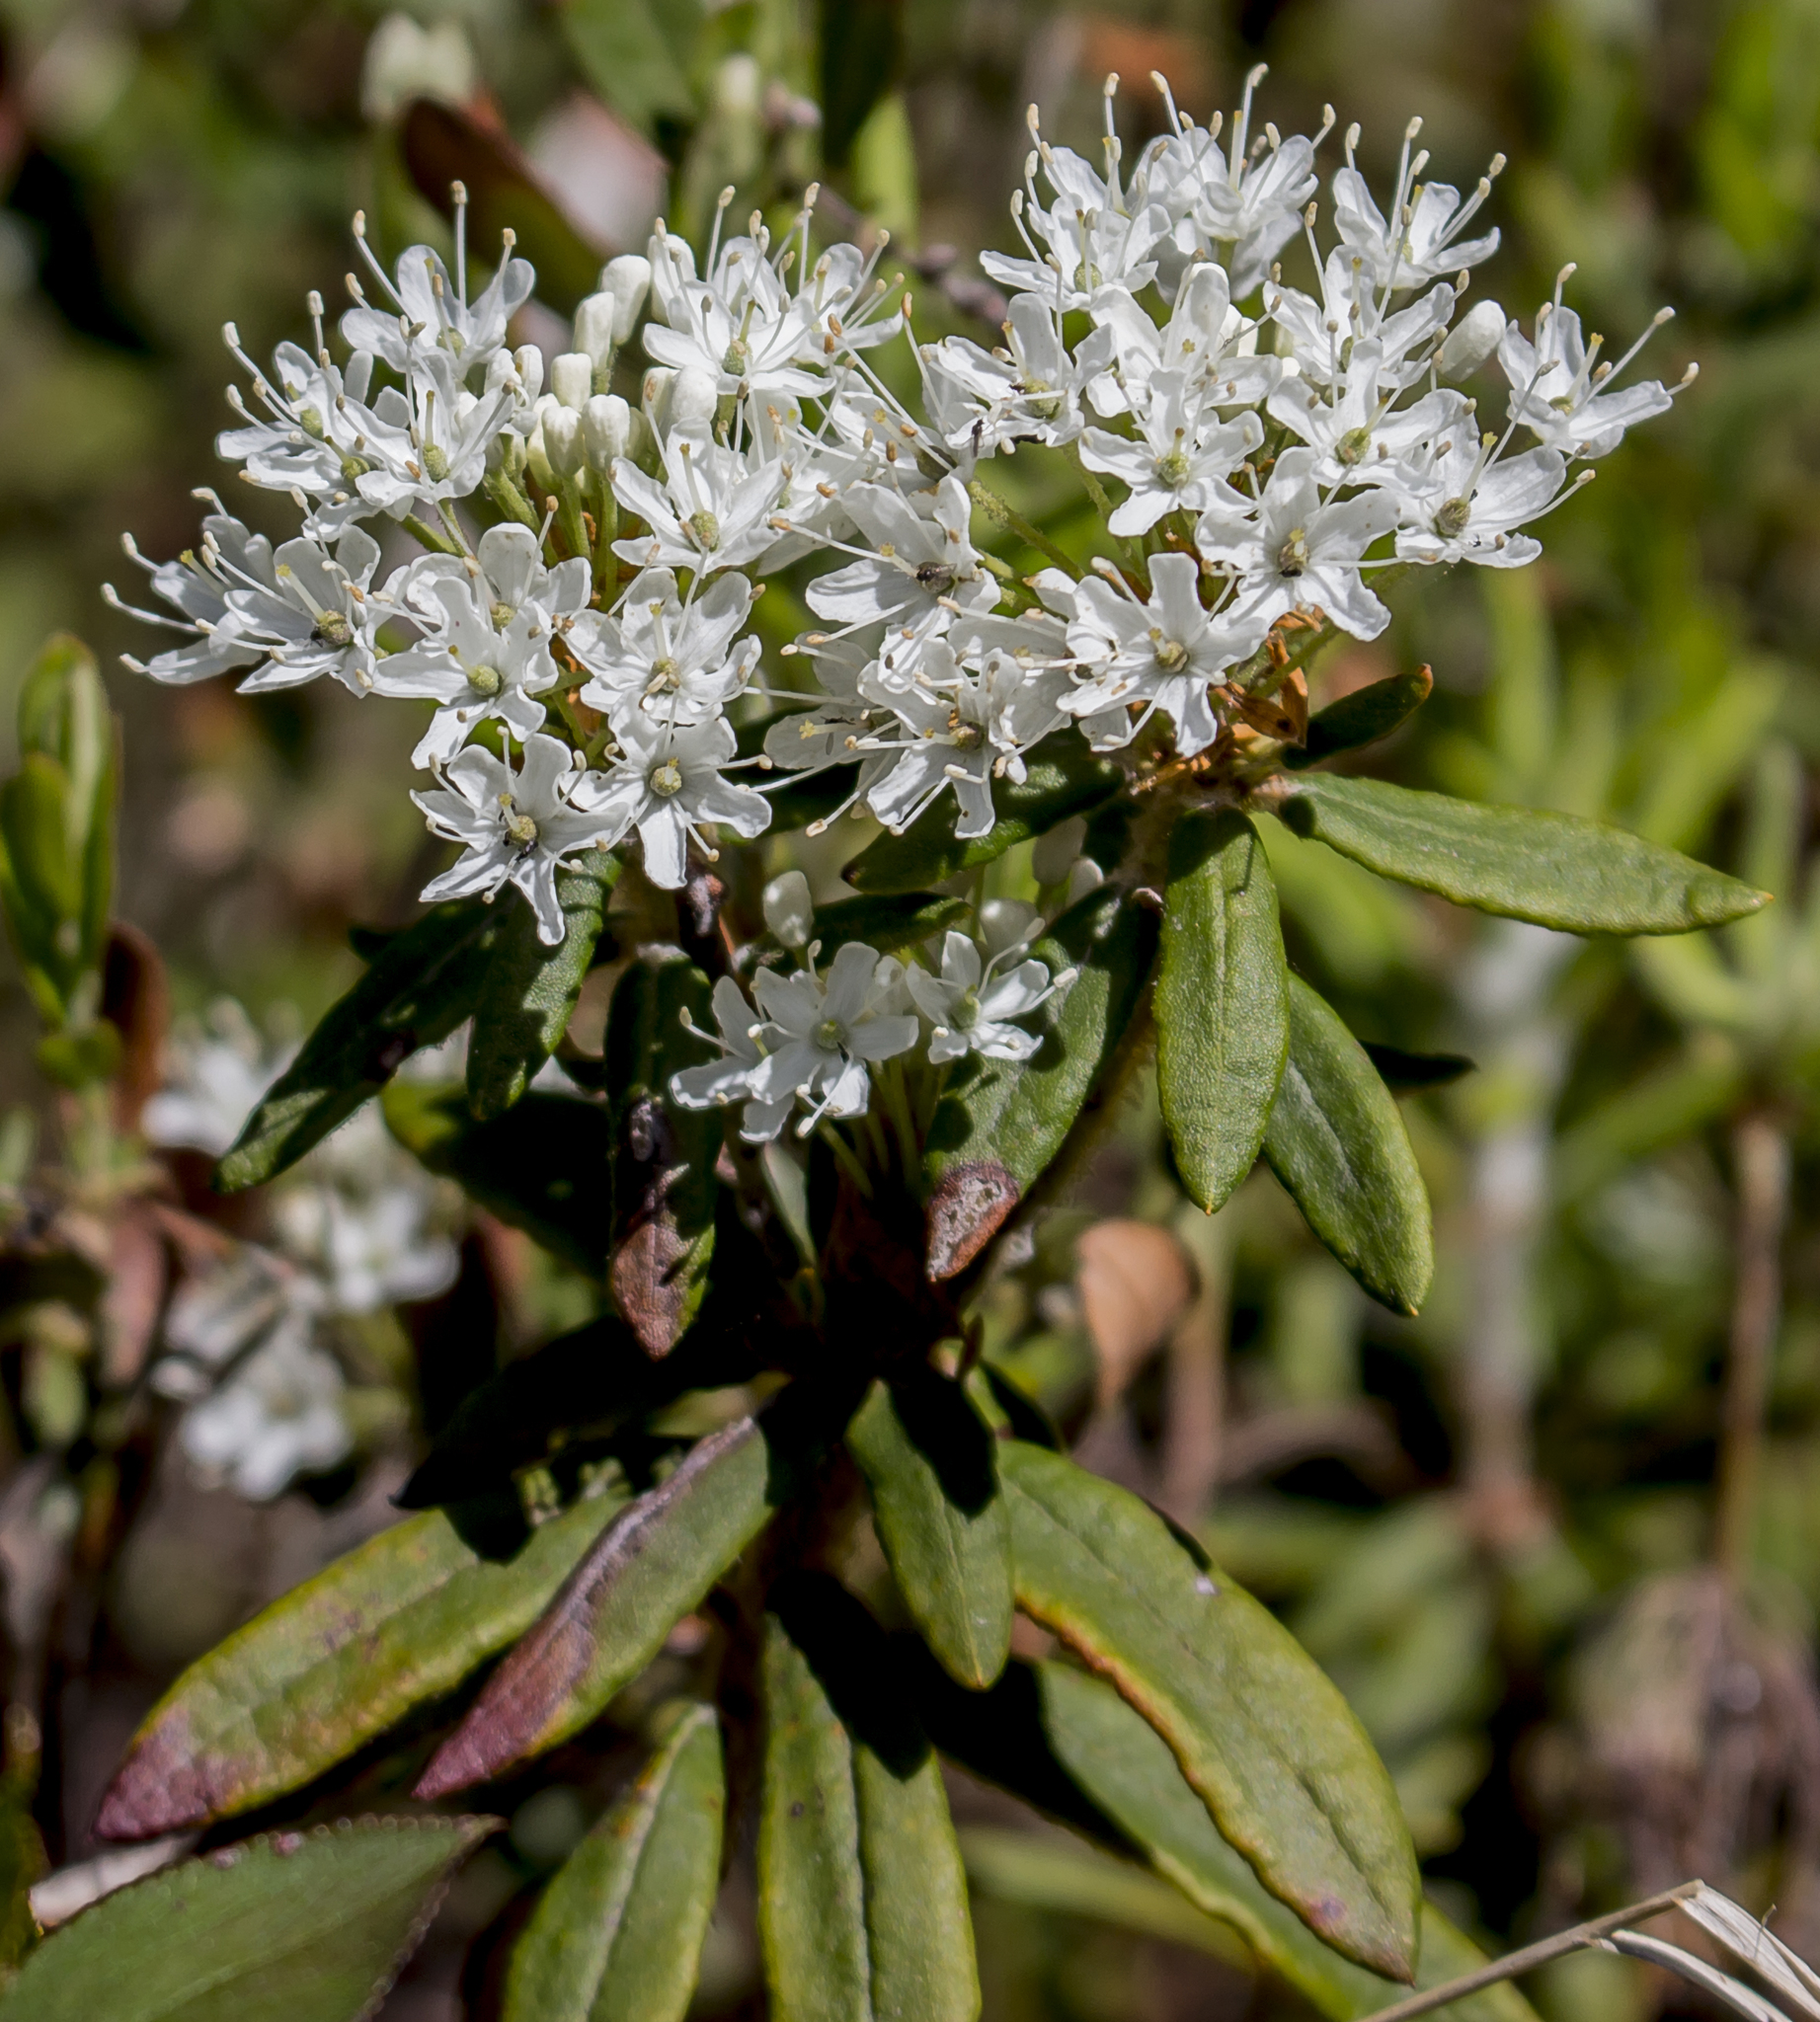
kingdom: Plantae
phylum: Tracheophyta
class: Magnoliopsida
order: Ericales
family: Ericaceae
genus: Rhododendron
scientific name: Rhododendron groenlandicum
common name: Bog labrador tea
